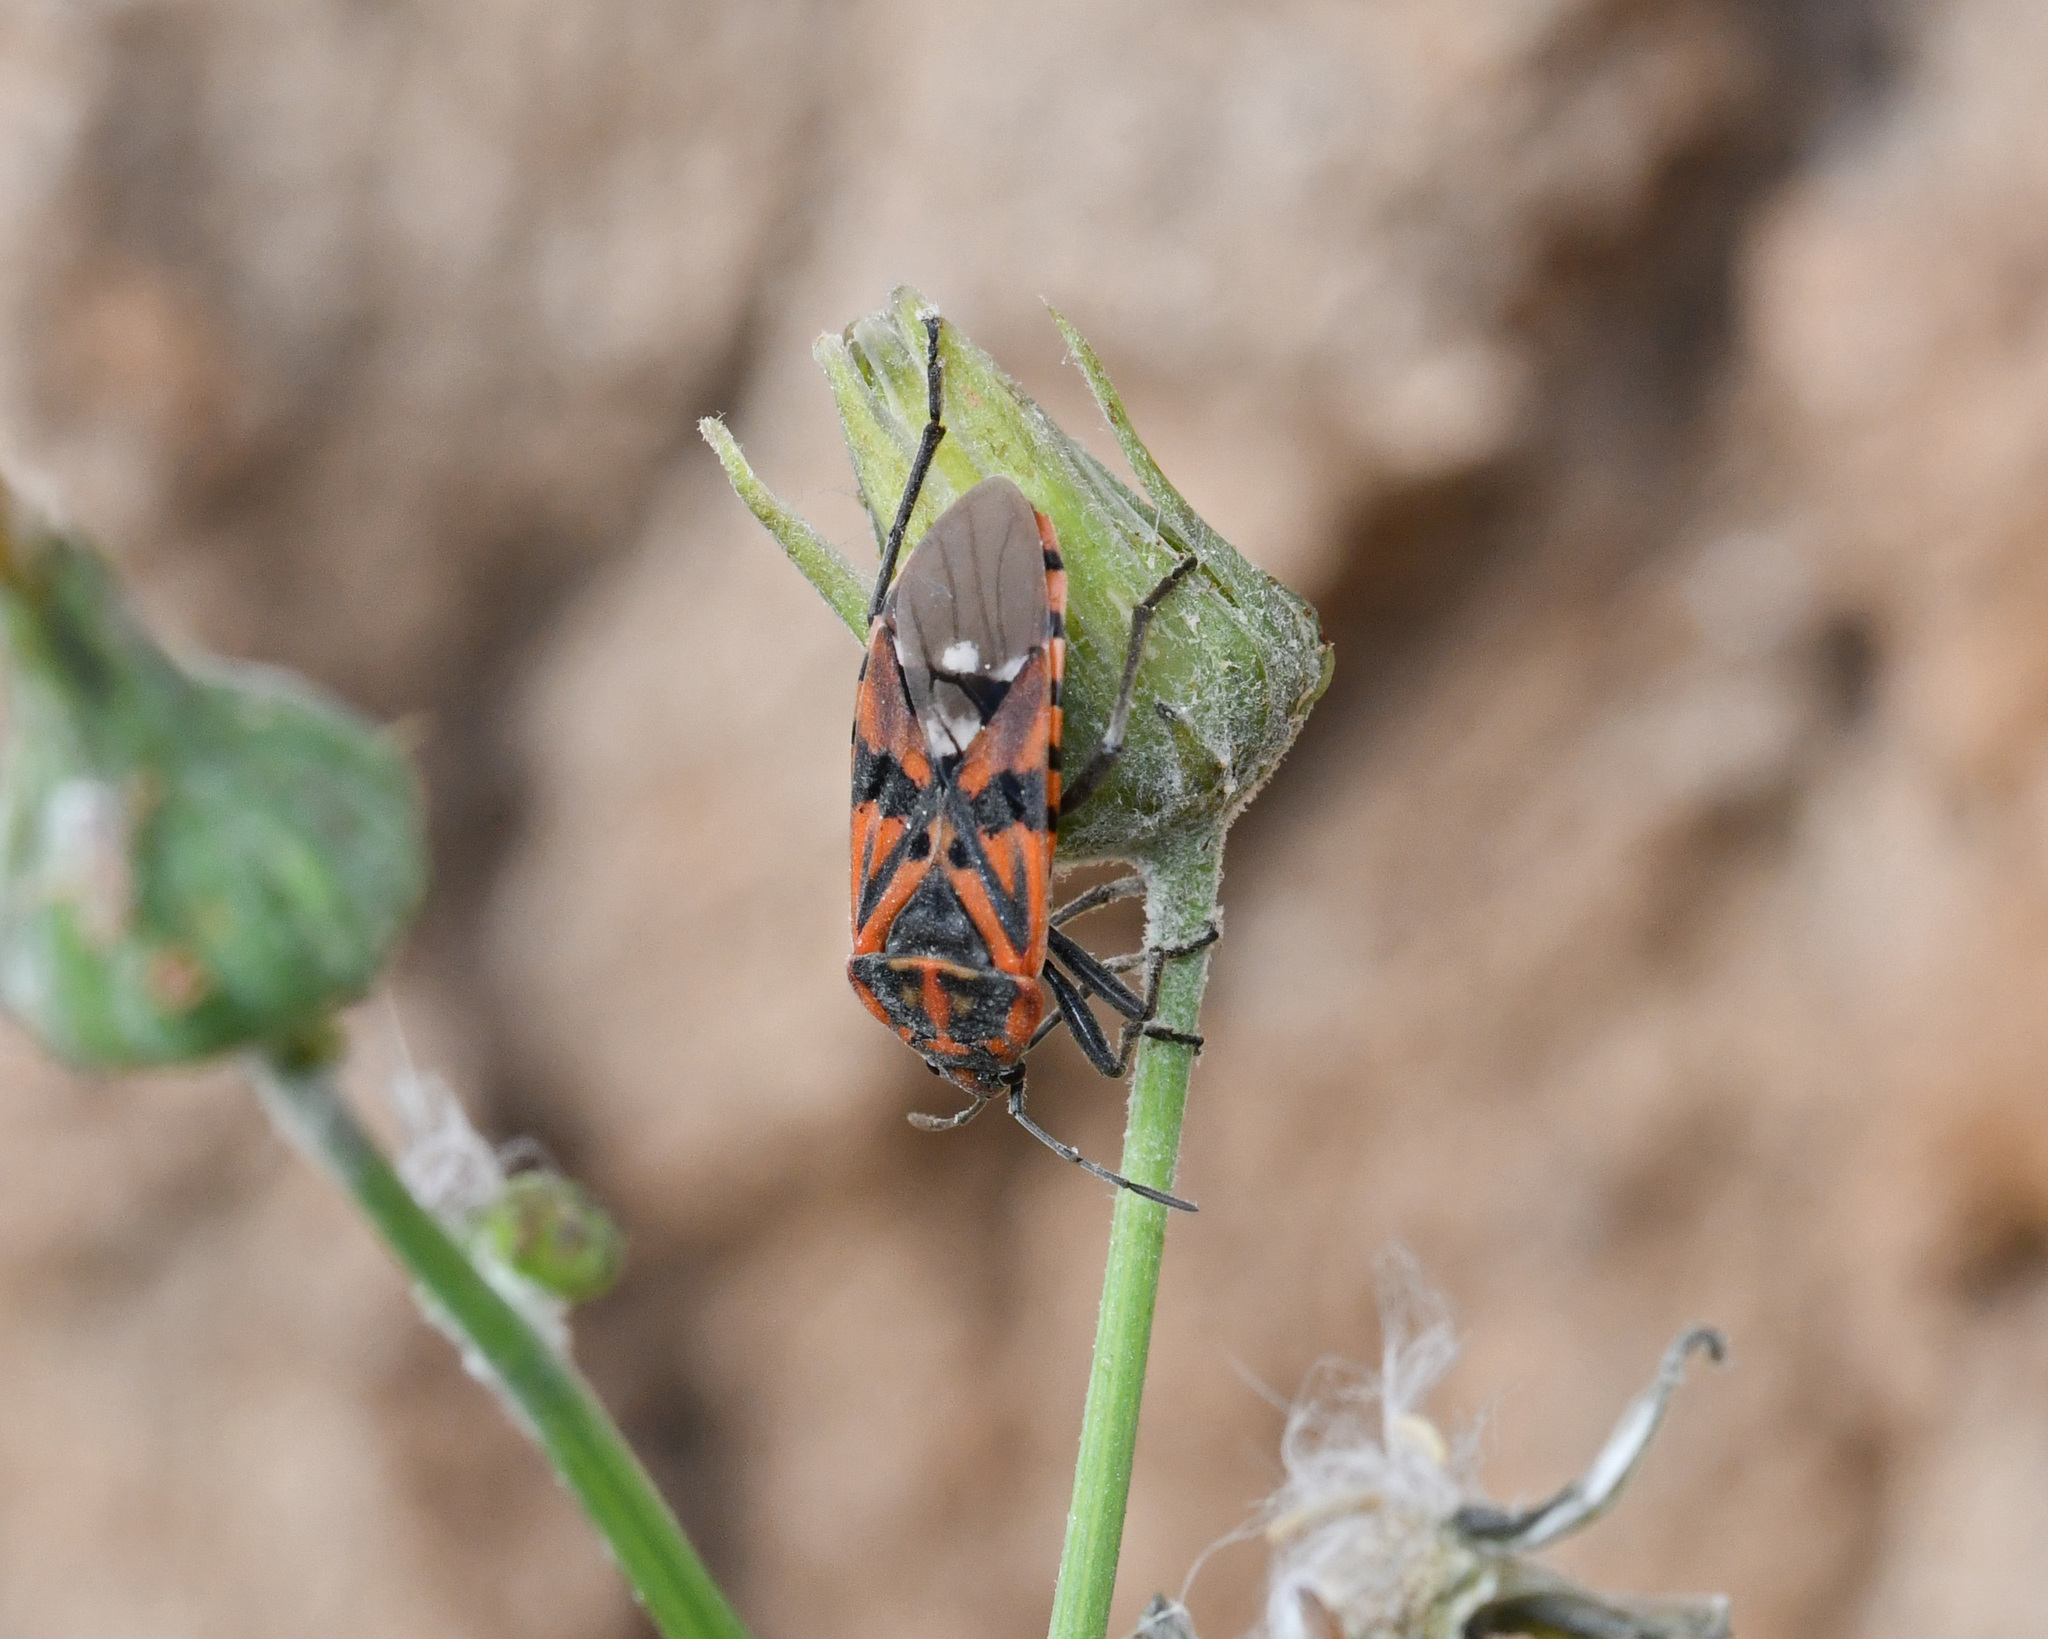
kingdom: Animalia
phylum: Arthropoda
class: Insecta
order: Hemiptera
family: Lygaeidae
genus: Spilostethus
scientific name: Spilostethus pandurus
